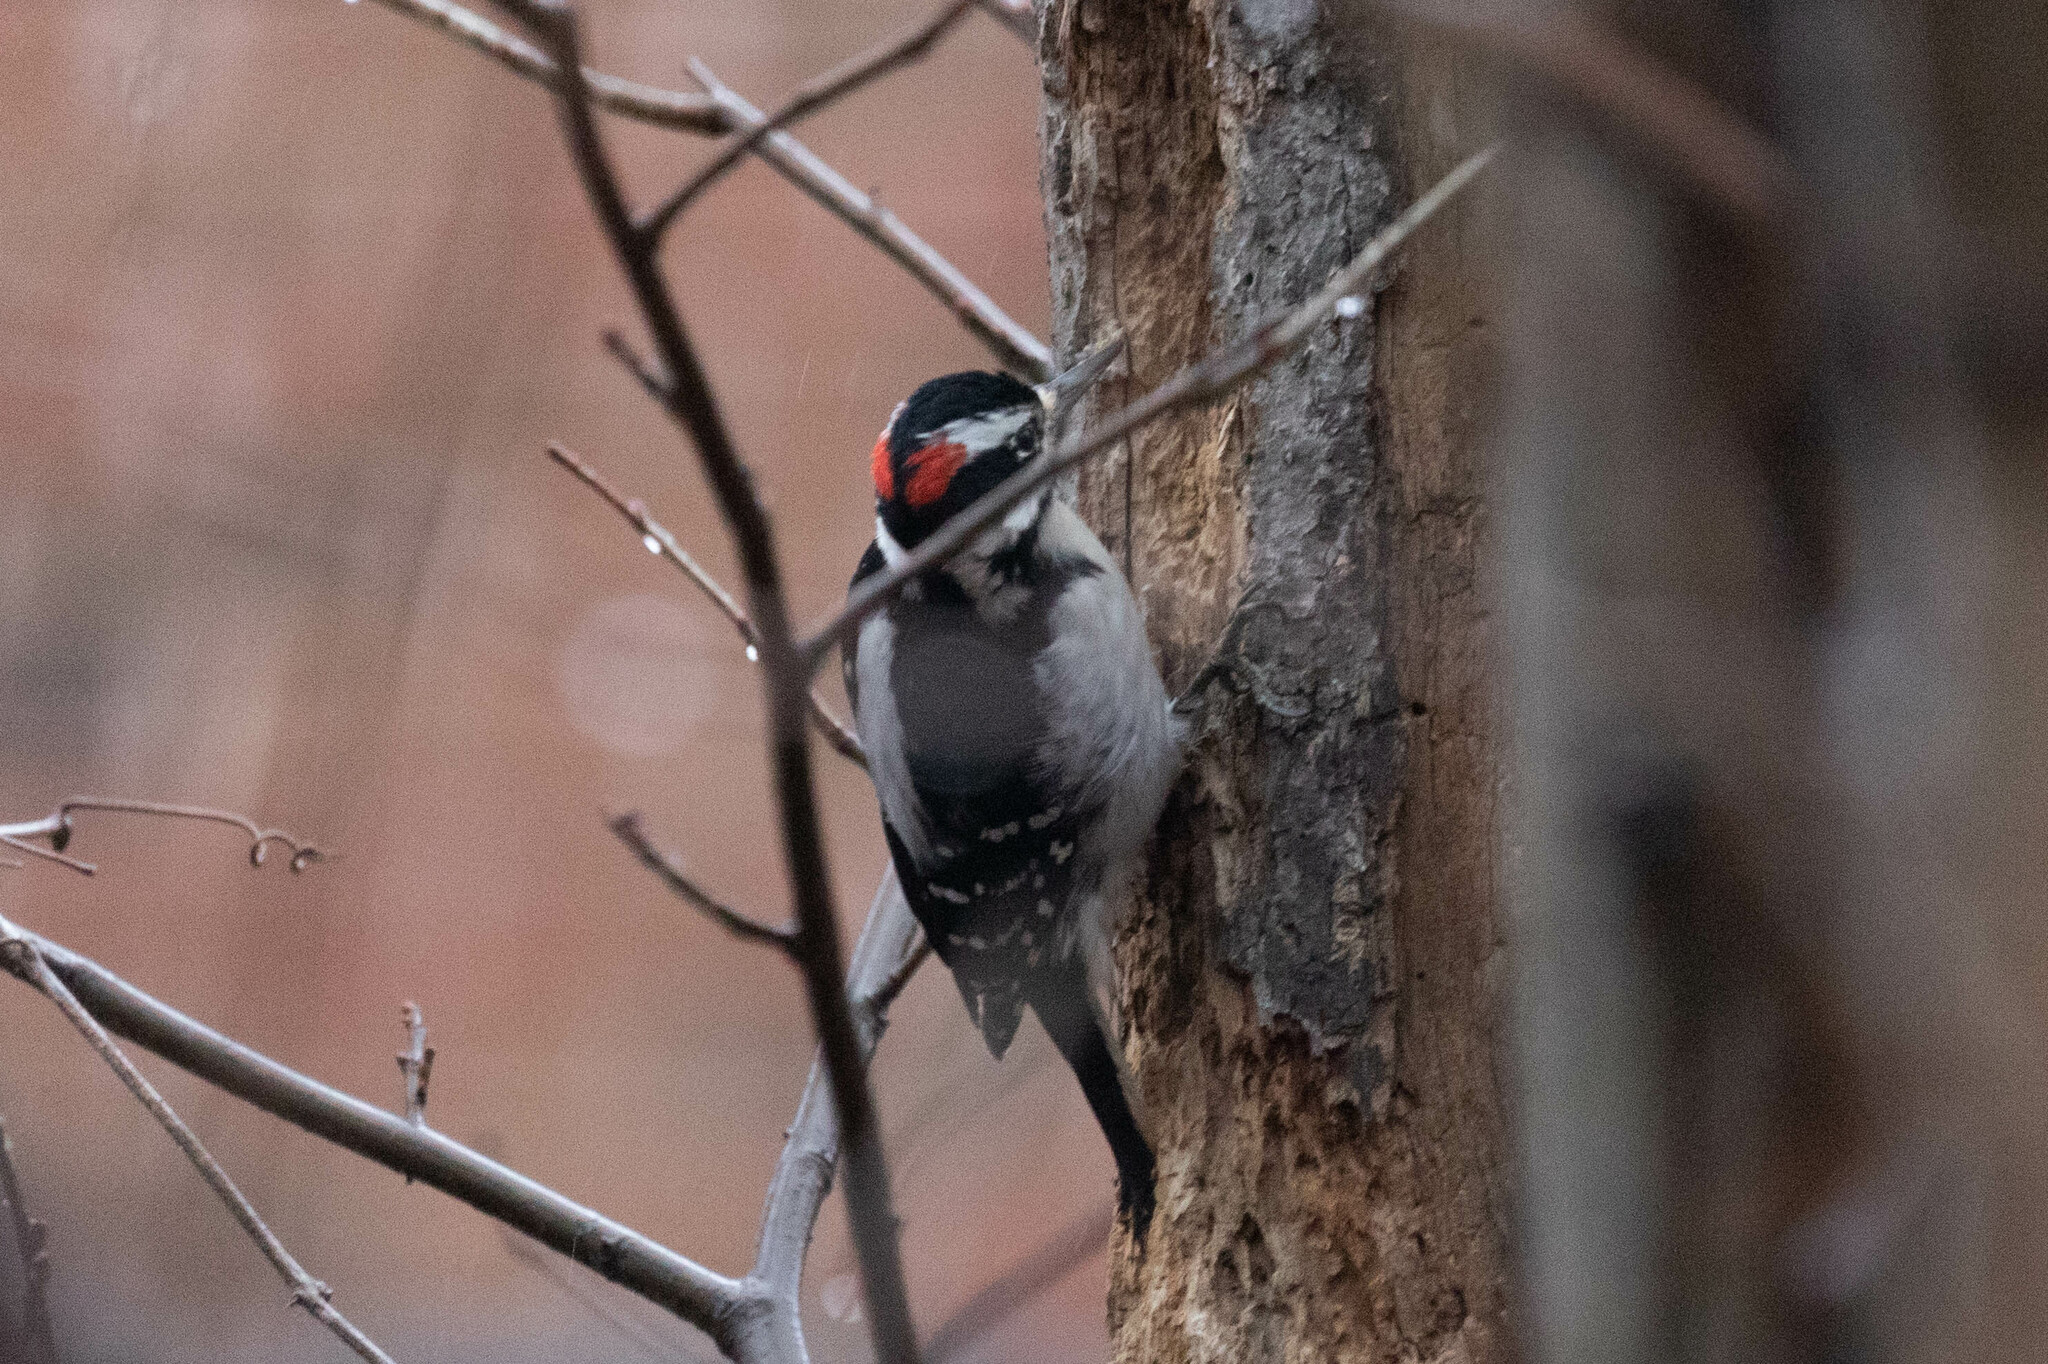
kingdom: Animalia
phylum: Chordata
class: Aves
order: Piciformes
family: Picidae
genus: Leuconotopicus
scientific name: Leuconotopicus villosus
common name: Hairy woodpecker
